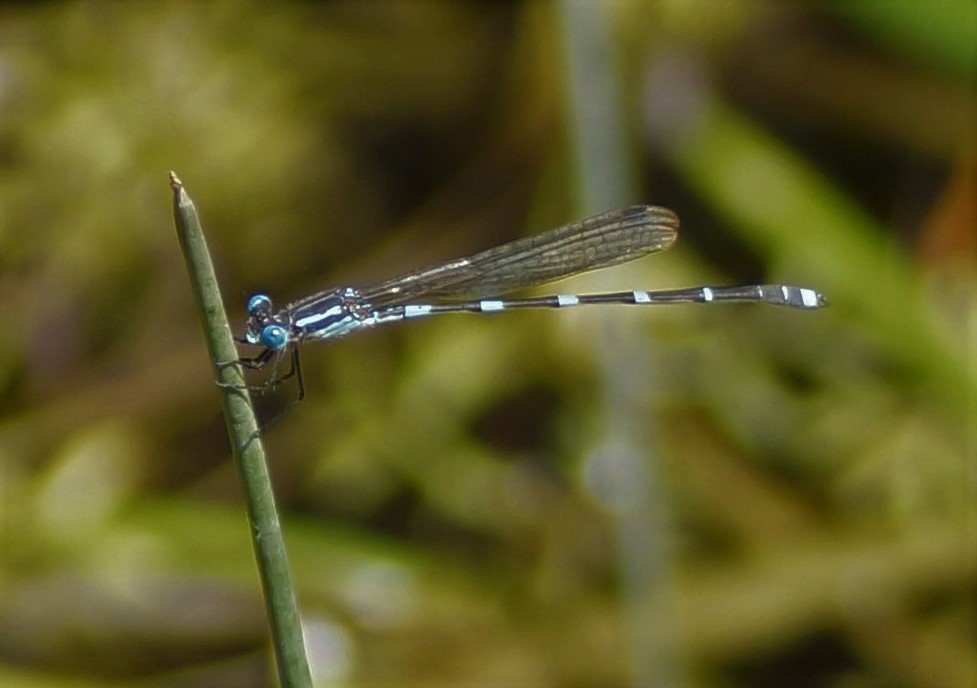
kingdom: Animalia
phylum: Arthropoda
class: Insecta
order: Odonata
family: Lestidae
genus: Austrolestes
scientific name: Austrolestes leda
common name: Wandering ringtail
